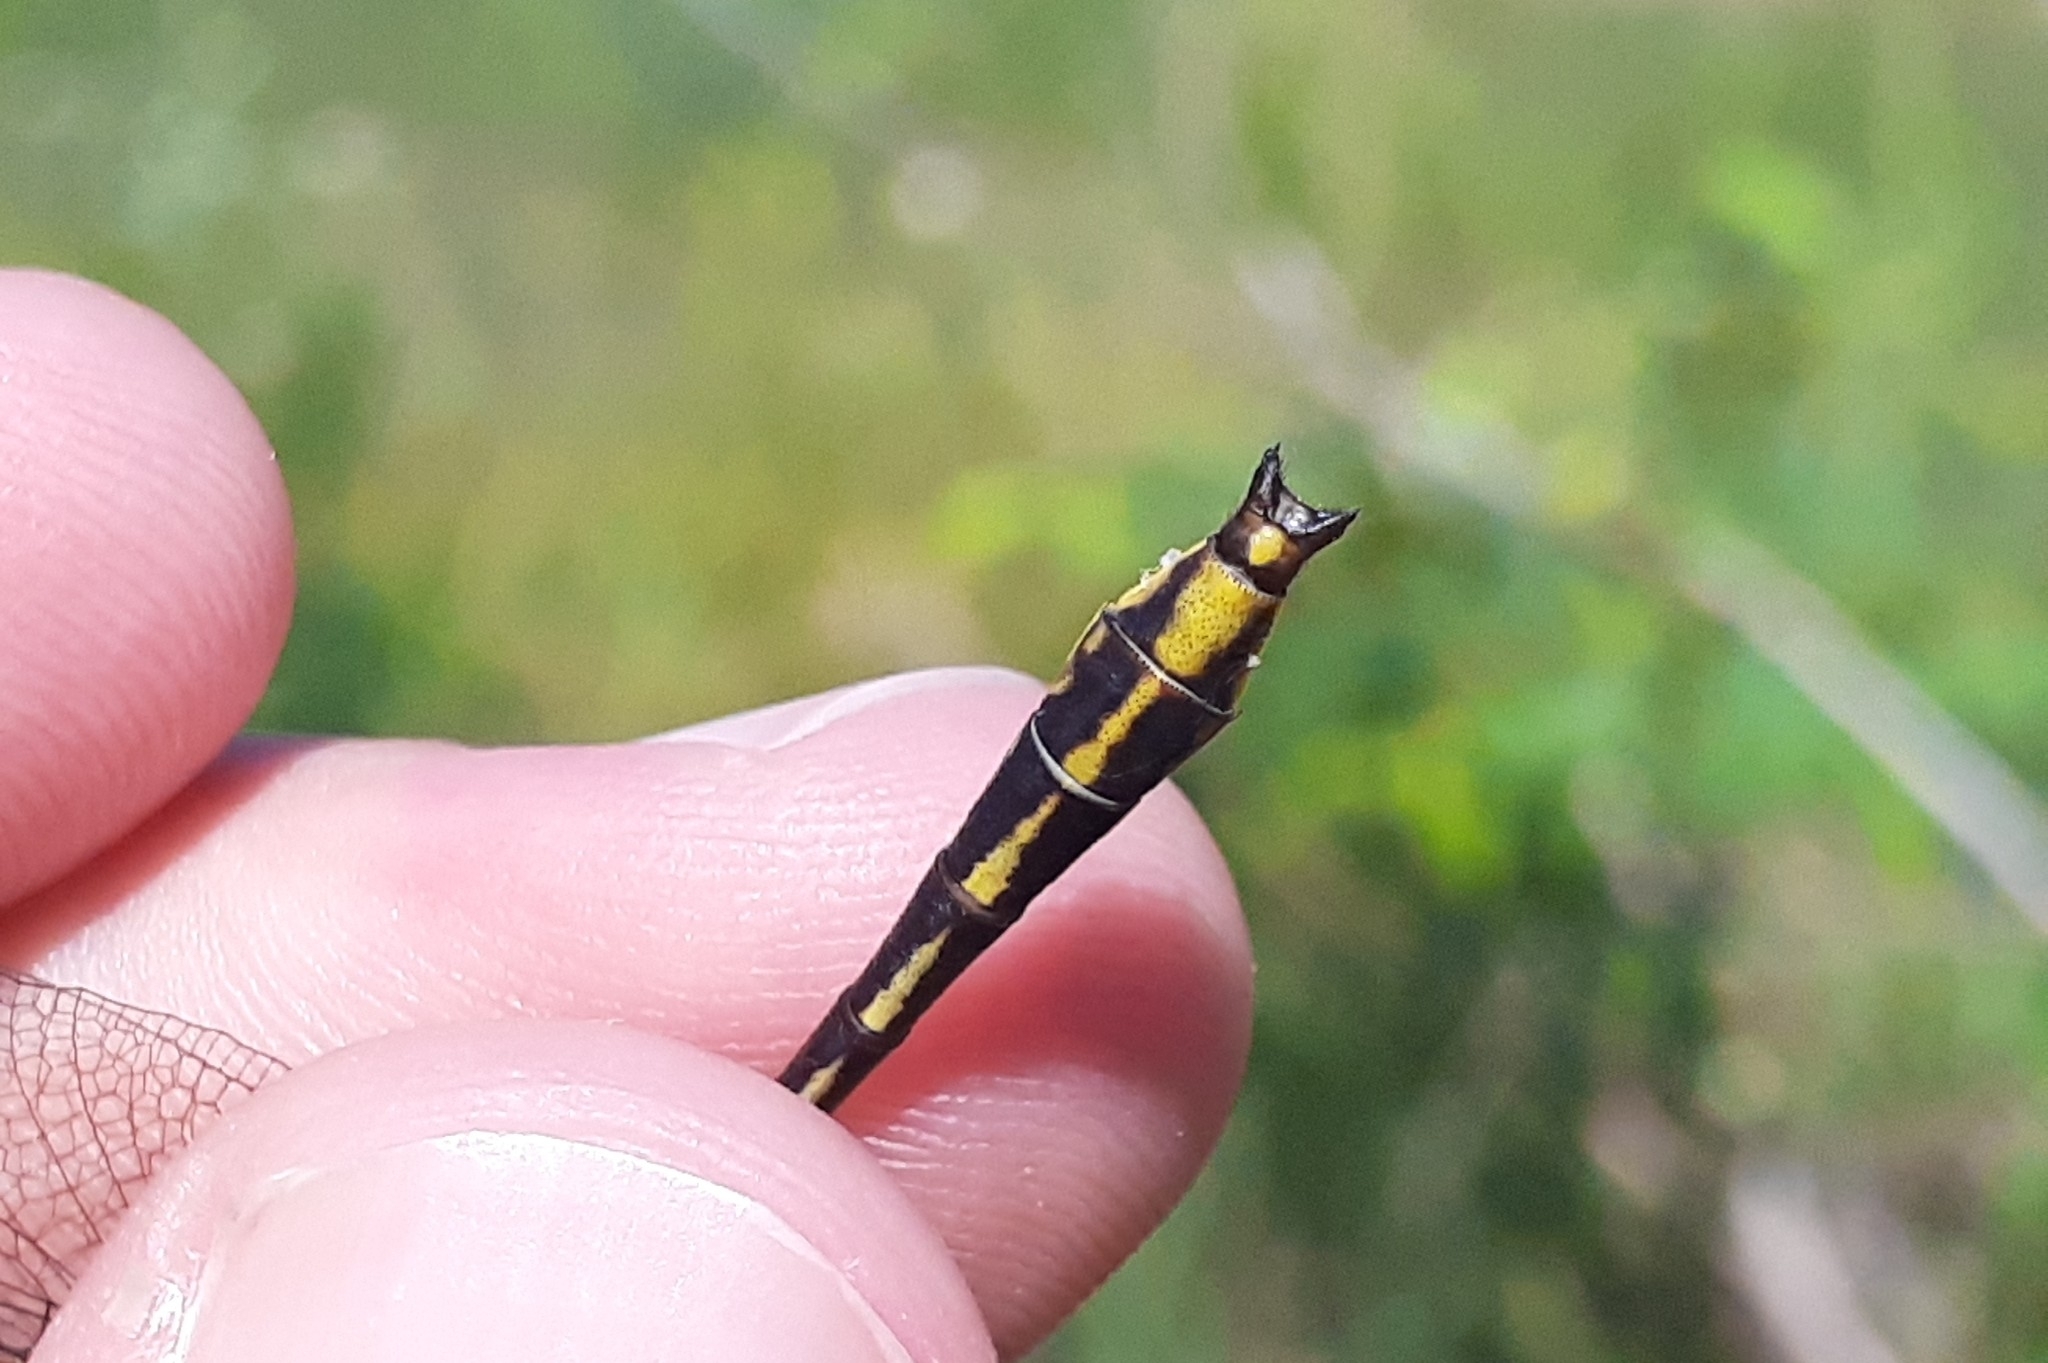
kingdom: Animalia
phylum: Arthropoda
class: Insecta
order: Odonata
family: Gomphidae
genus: Phanogomphus
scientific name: Phanogomphus exilis
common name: Lancet clubtail
